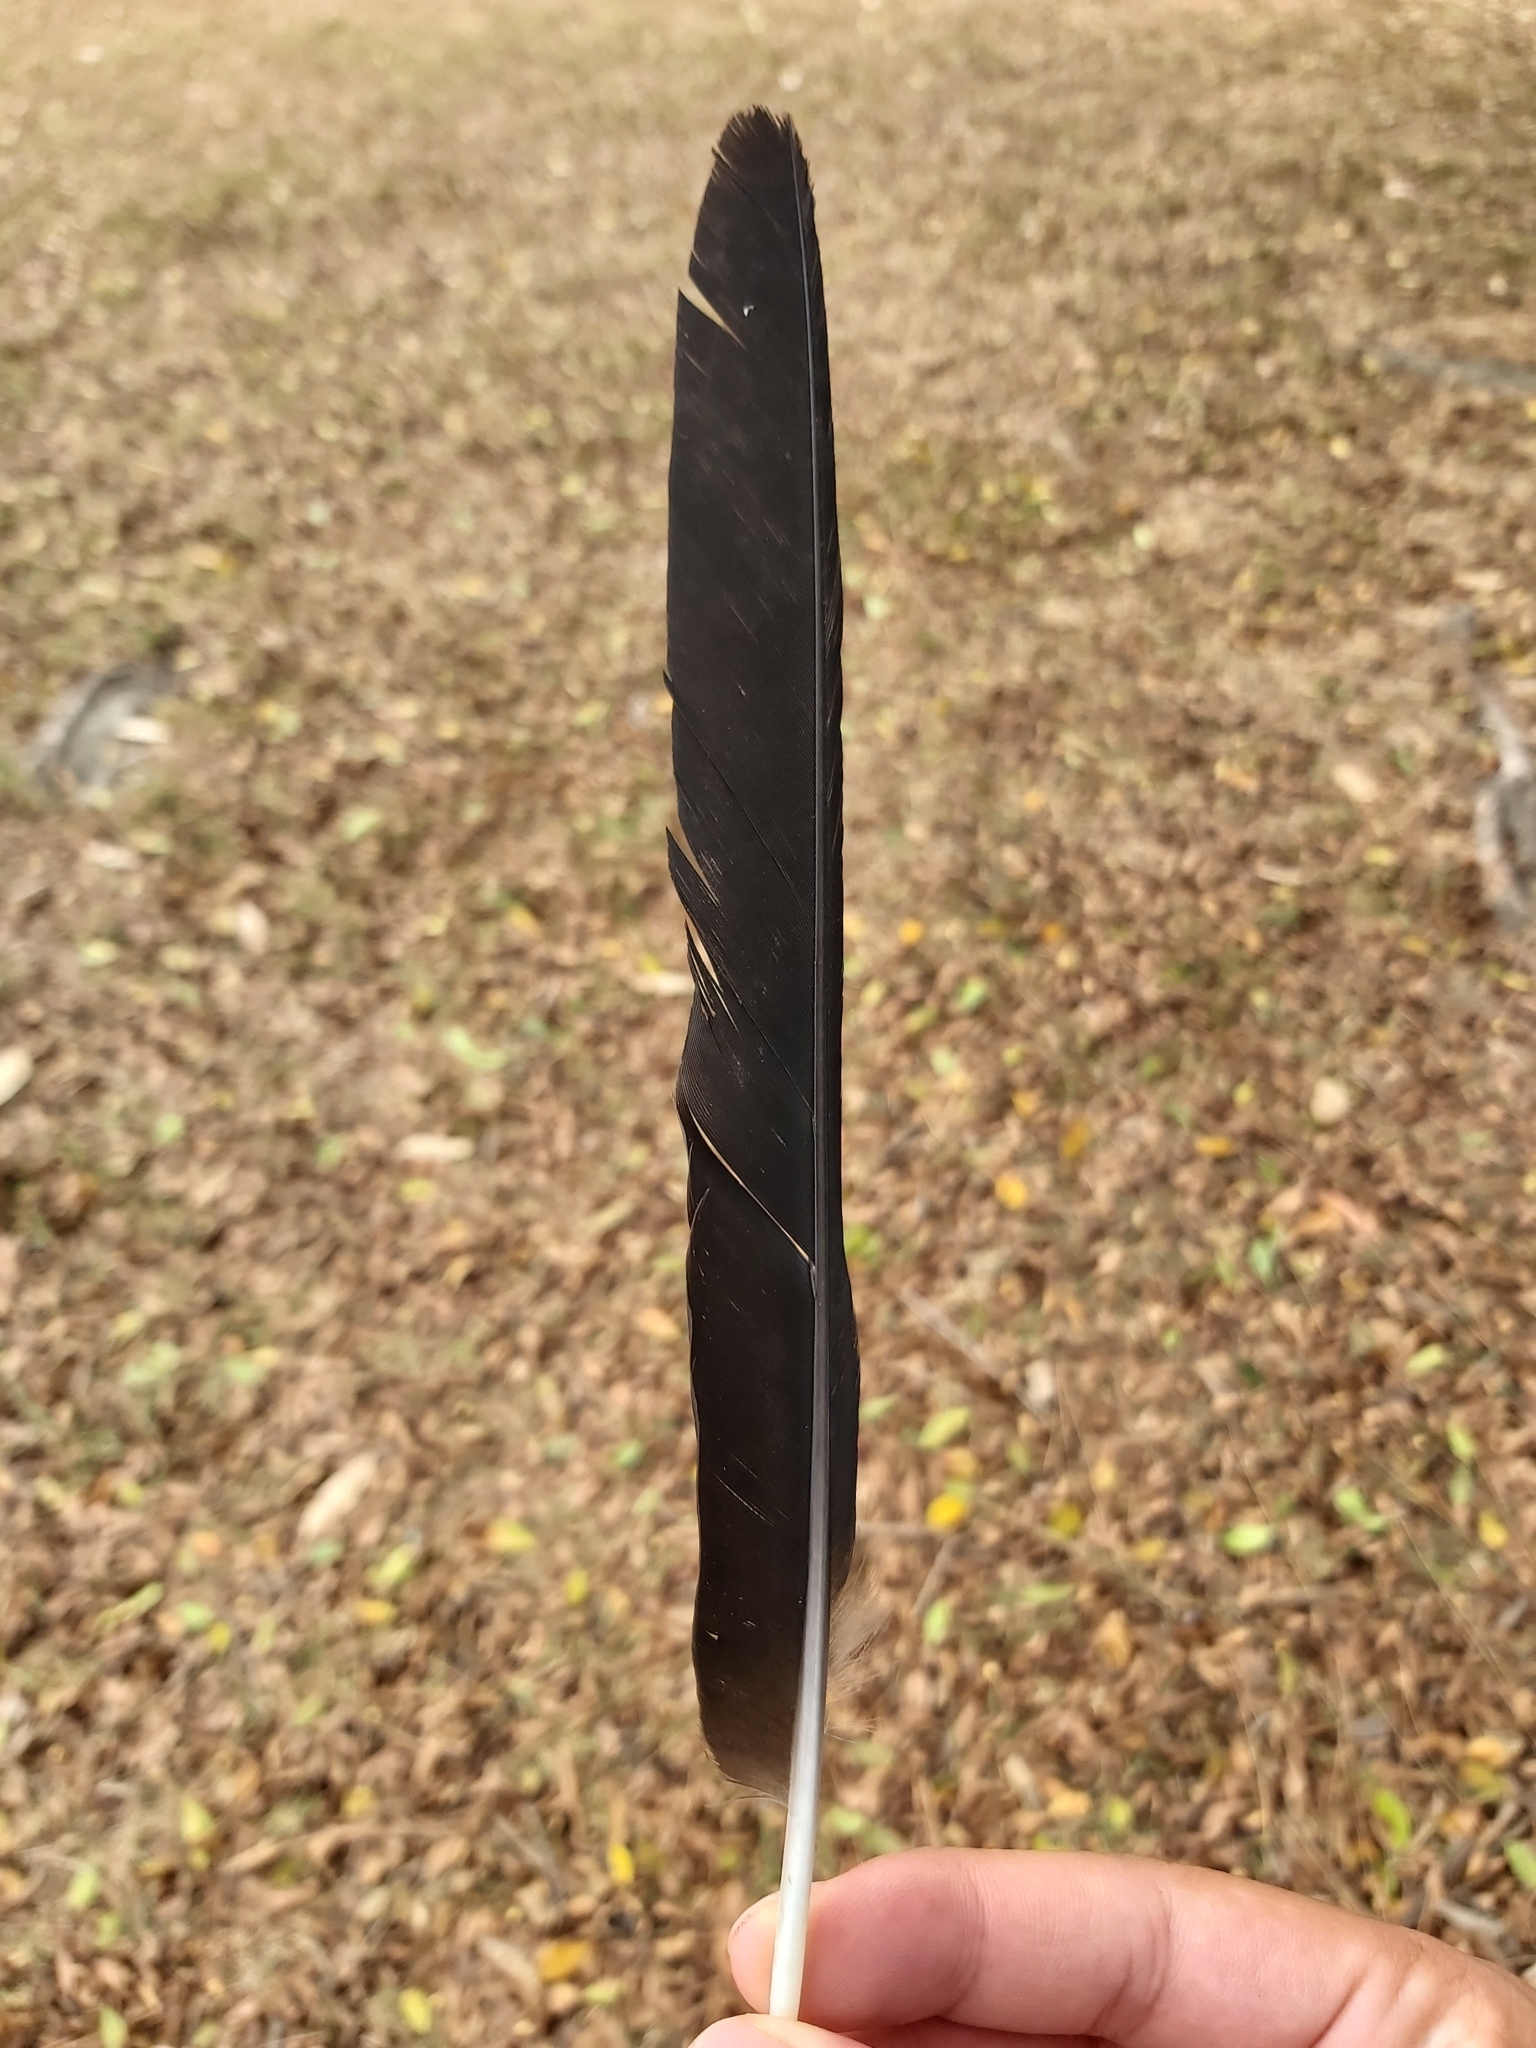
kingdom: Animalia
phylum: Chordata
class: Aves
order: Passeriformes
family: Cracticidae
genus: Gymnorhina
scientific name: Gymnorhina tibicen
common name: Australian magpie
